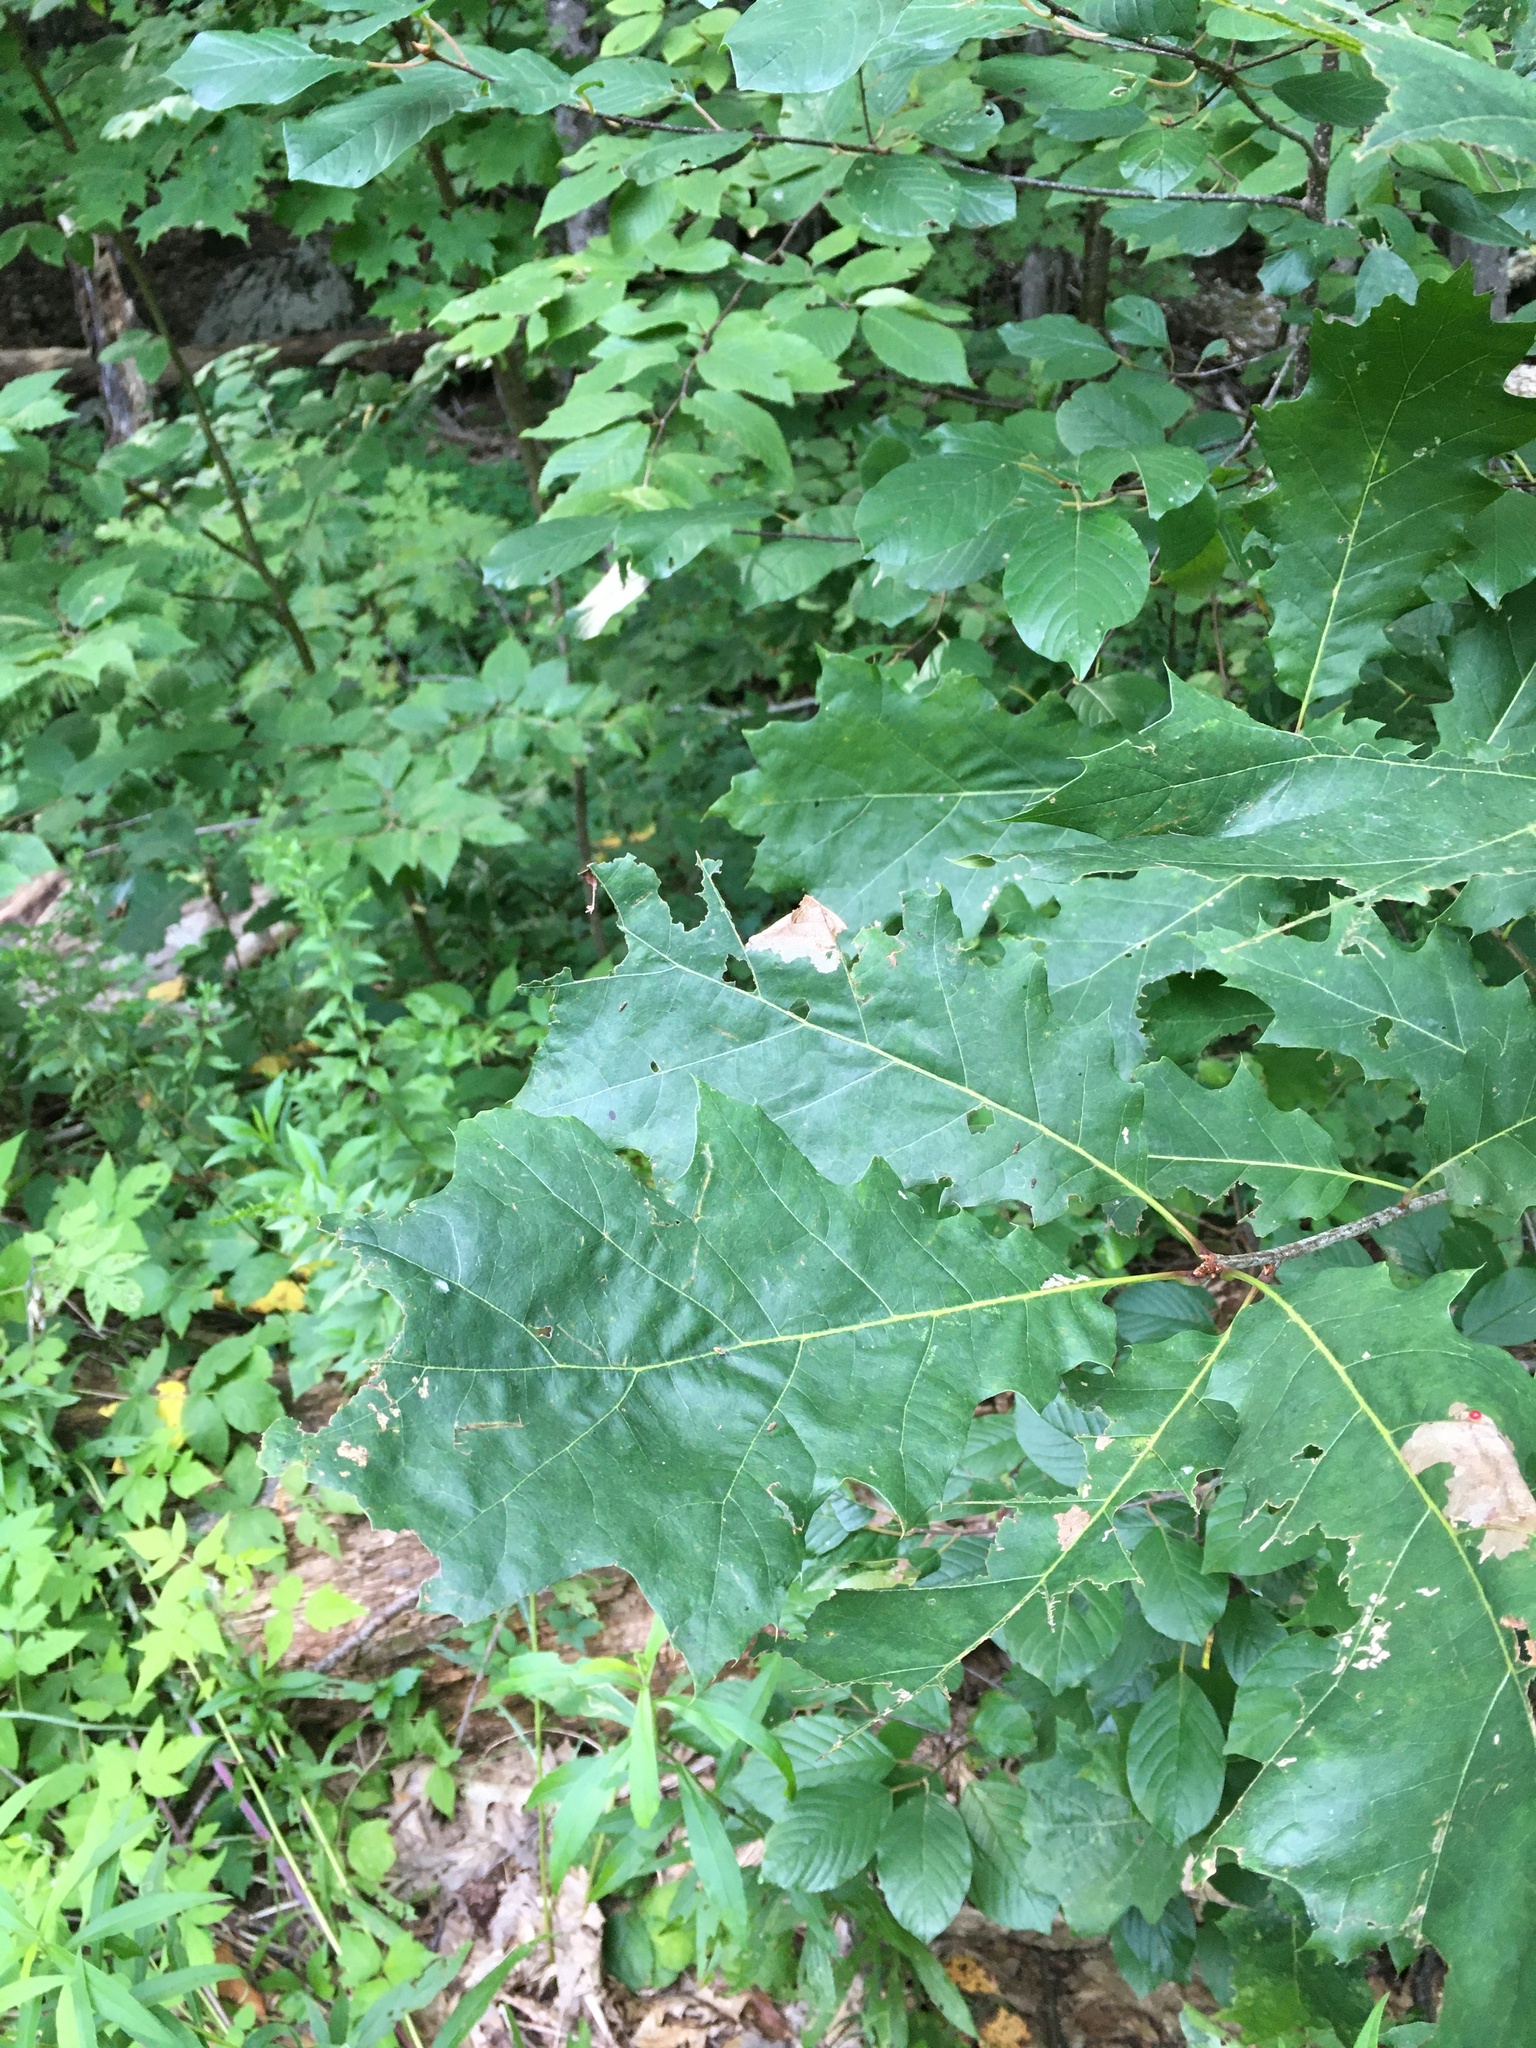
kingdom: Plantae
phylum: Tracheophyta
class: Magnoliopsida
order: Fagales
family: Fagaceae
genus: Quercus
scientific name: Quercus rubra
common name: Red oak
